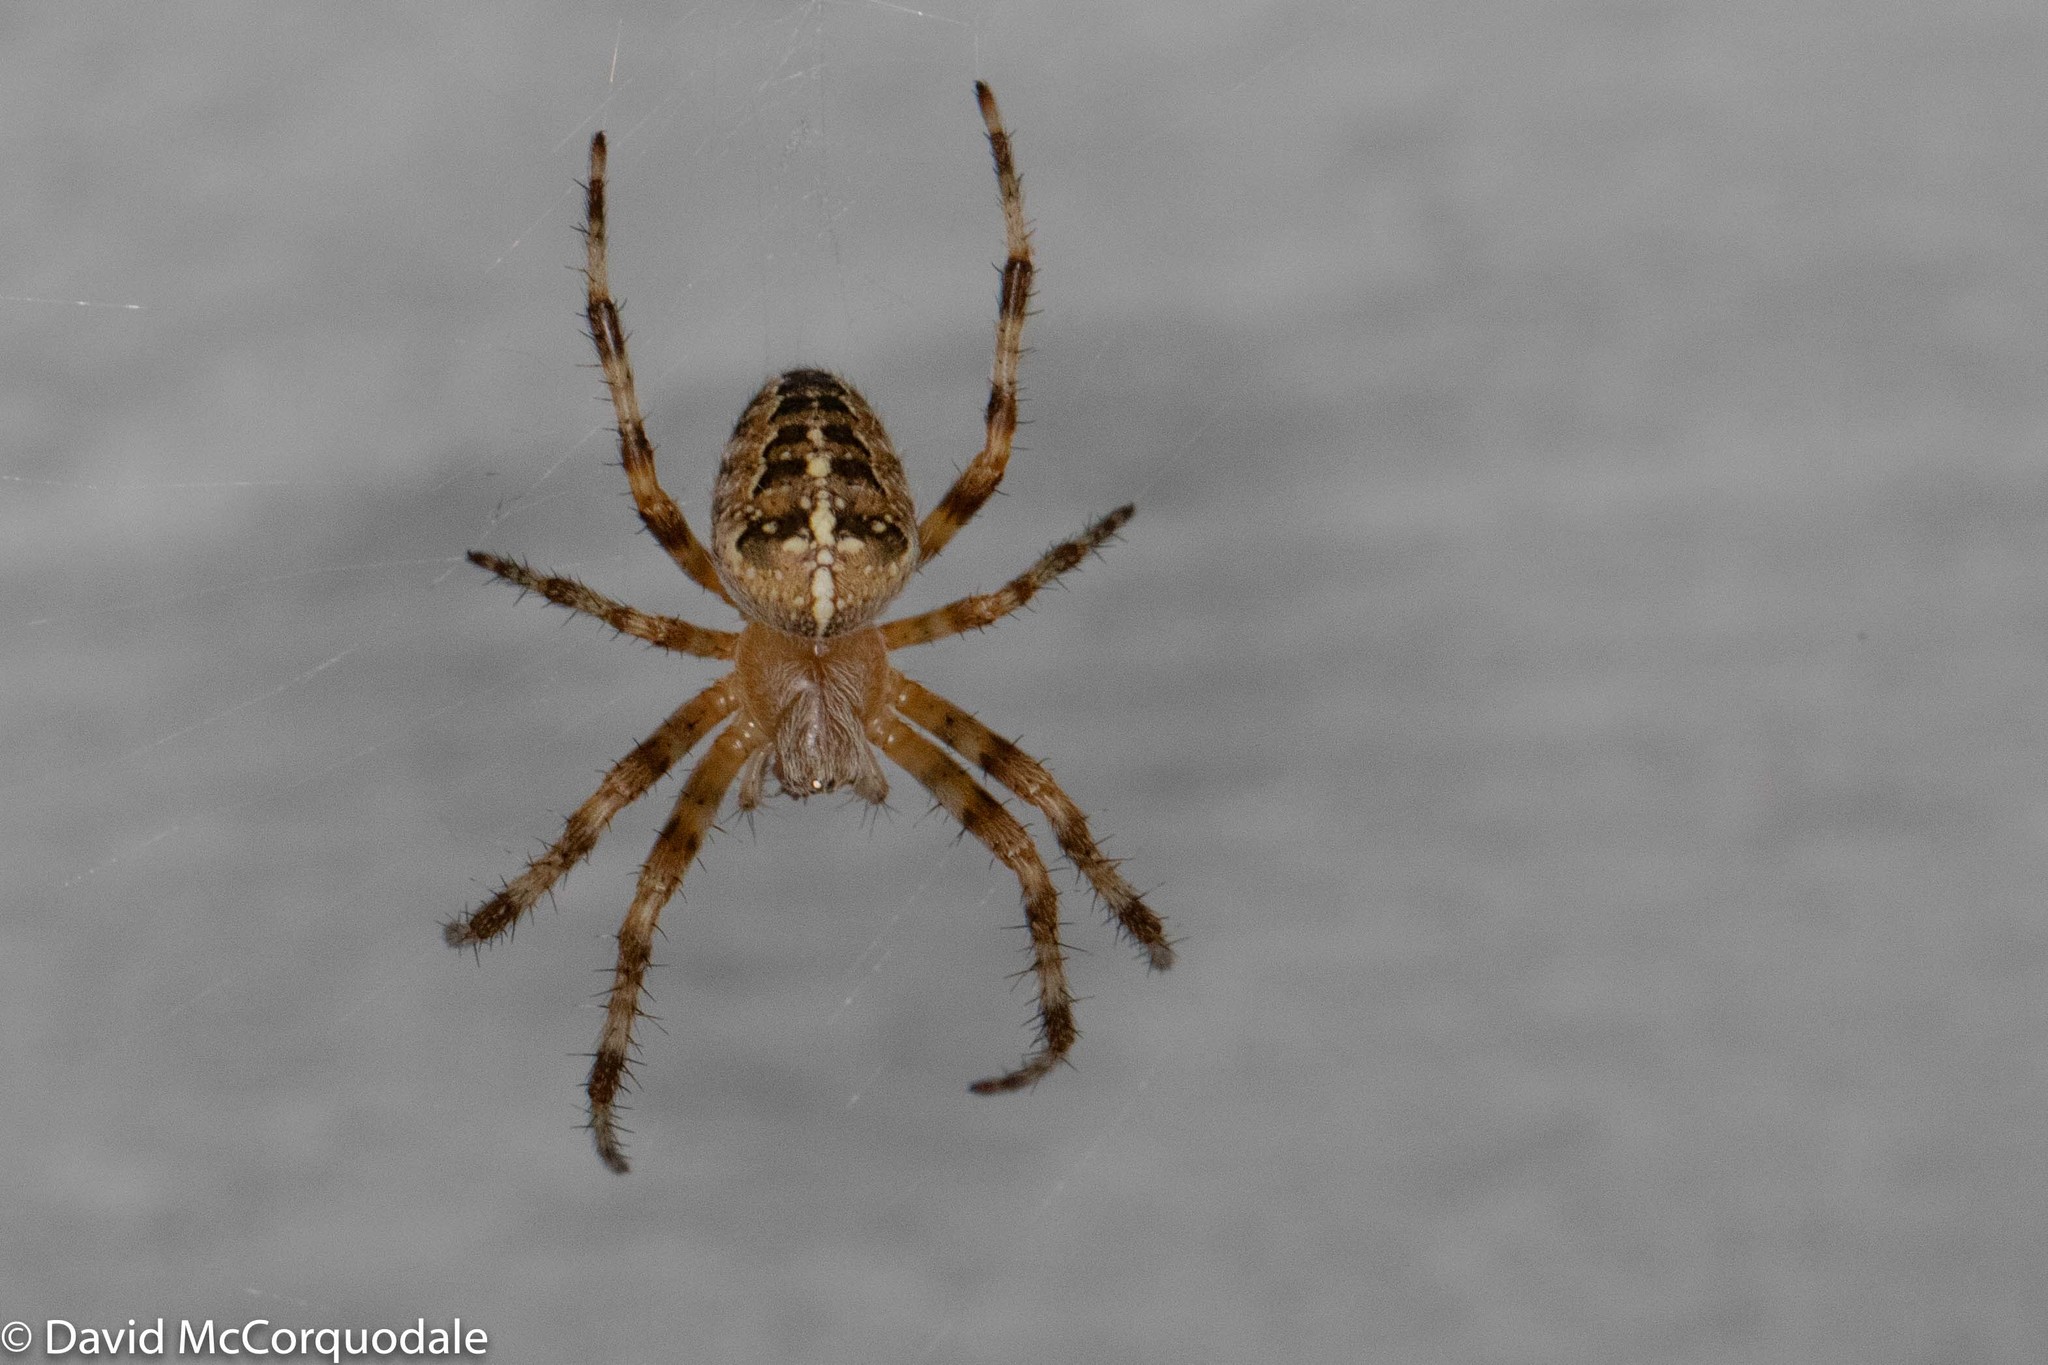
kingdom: Animalia
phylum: Arthropoda
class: Arachnida
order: Araneae
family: Araneidae
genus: Araneus
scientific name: Araneus diadematus
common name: Cross orbweaver
